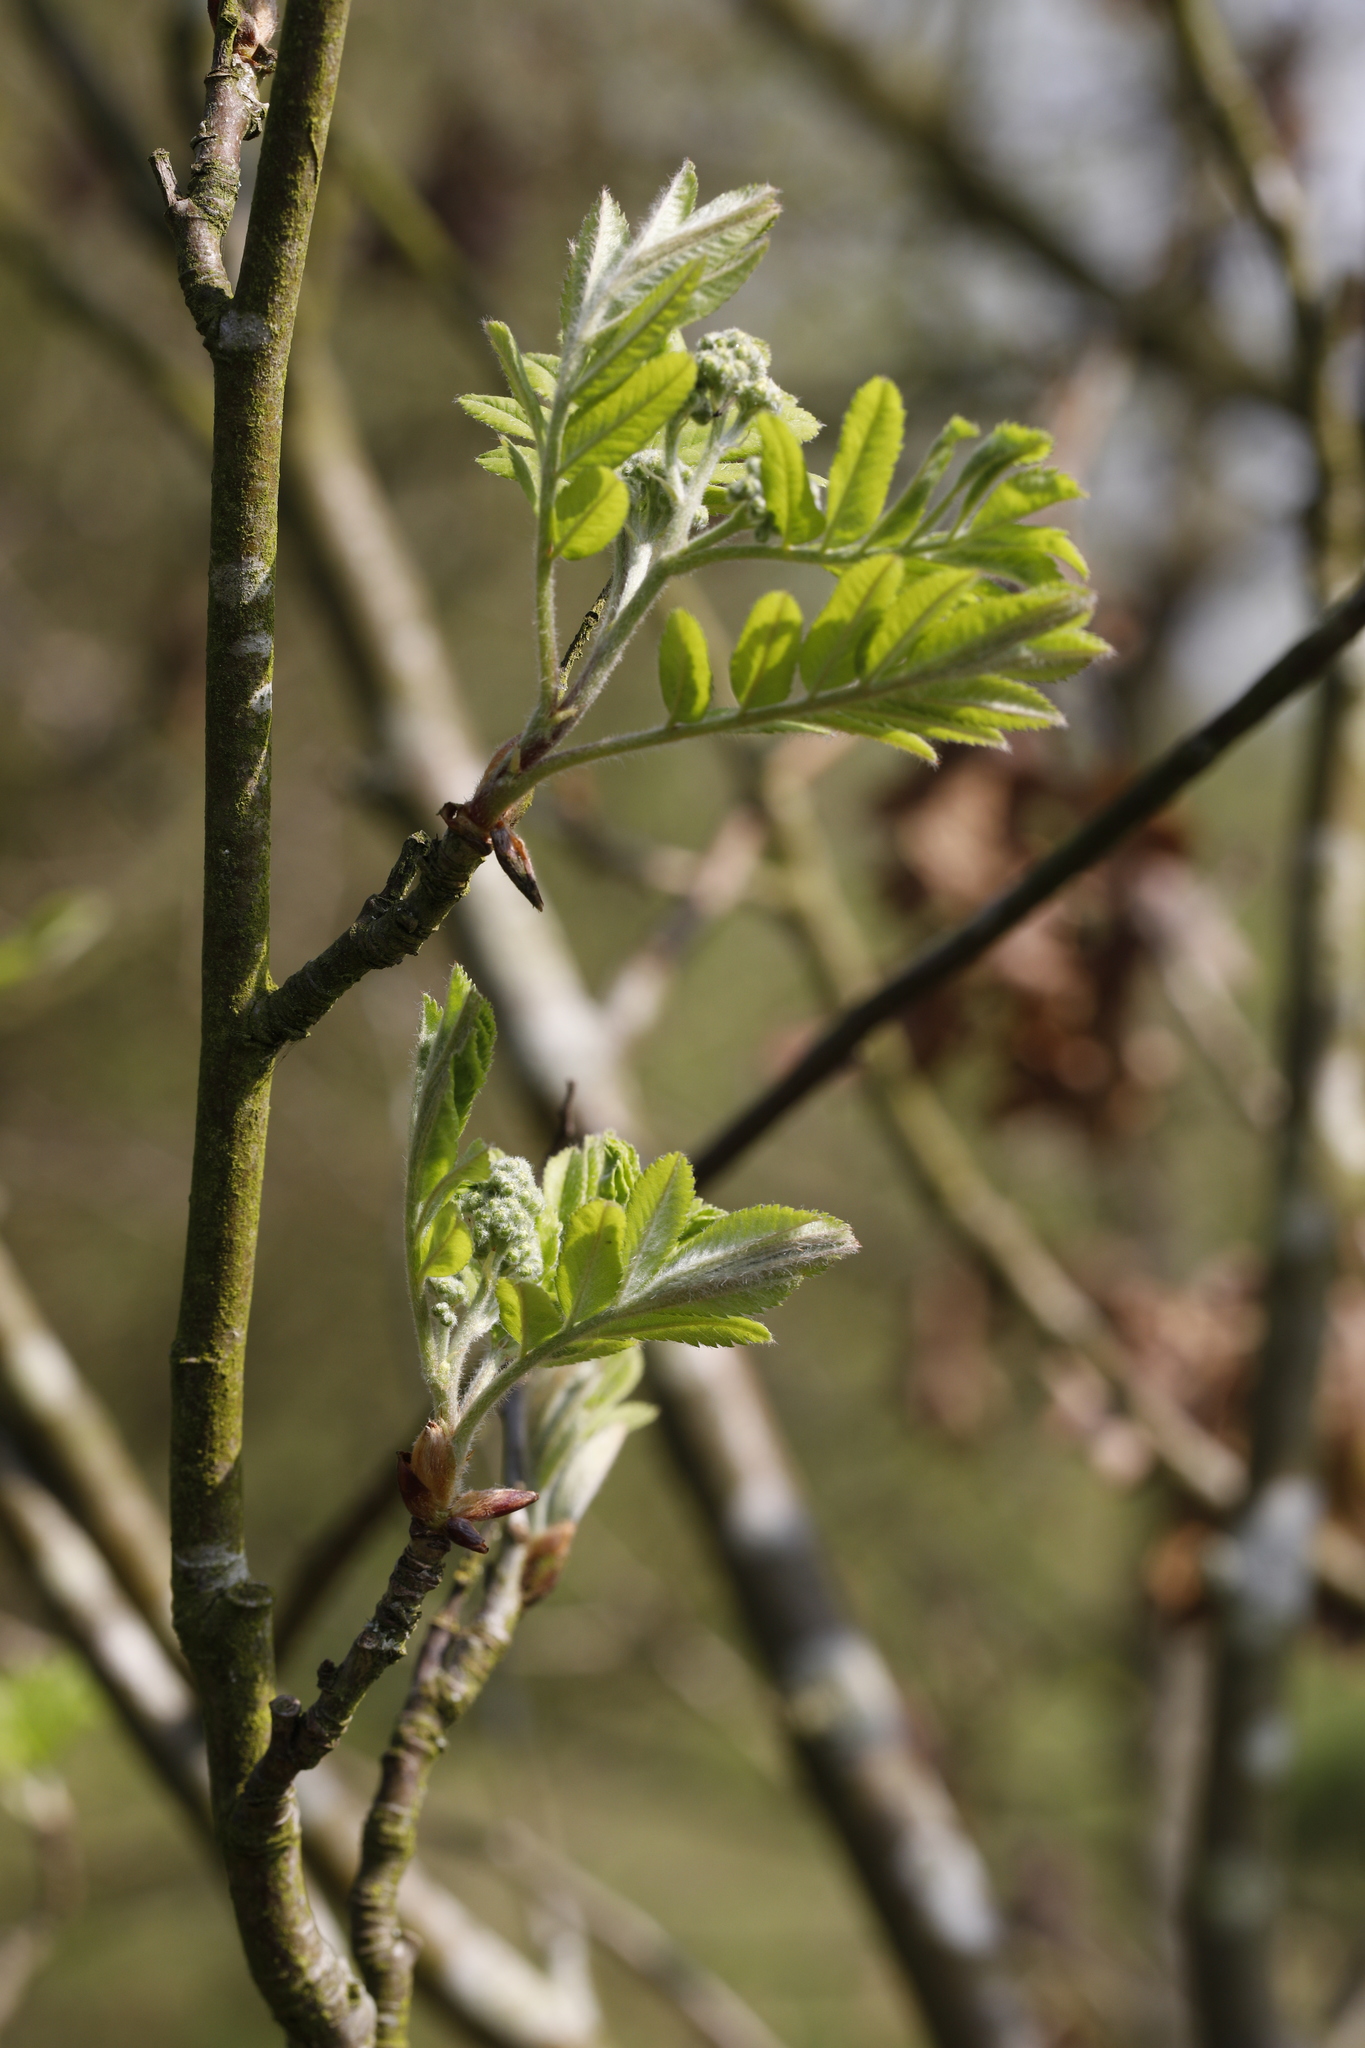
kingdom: Plantae
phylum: Tracheophyta
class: Magnoliopsida
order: Rosales
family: Rosaceae
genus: Sorbus
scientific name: Sorbus aucuparia
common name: Rowan
